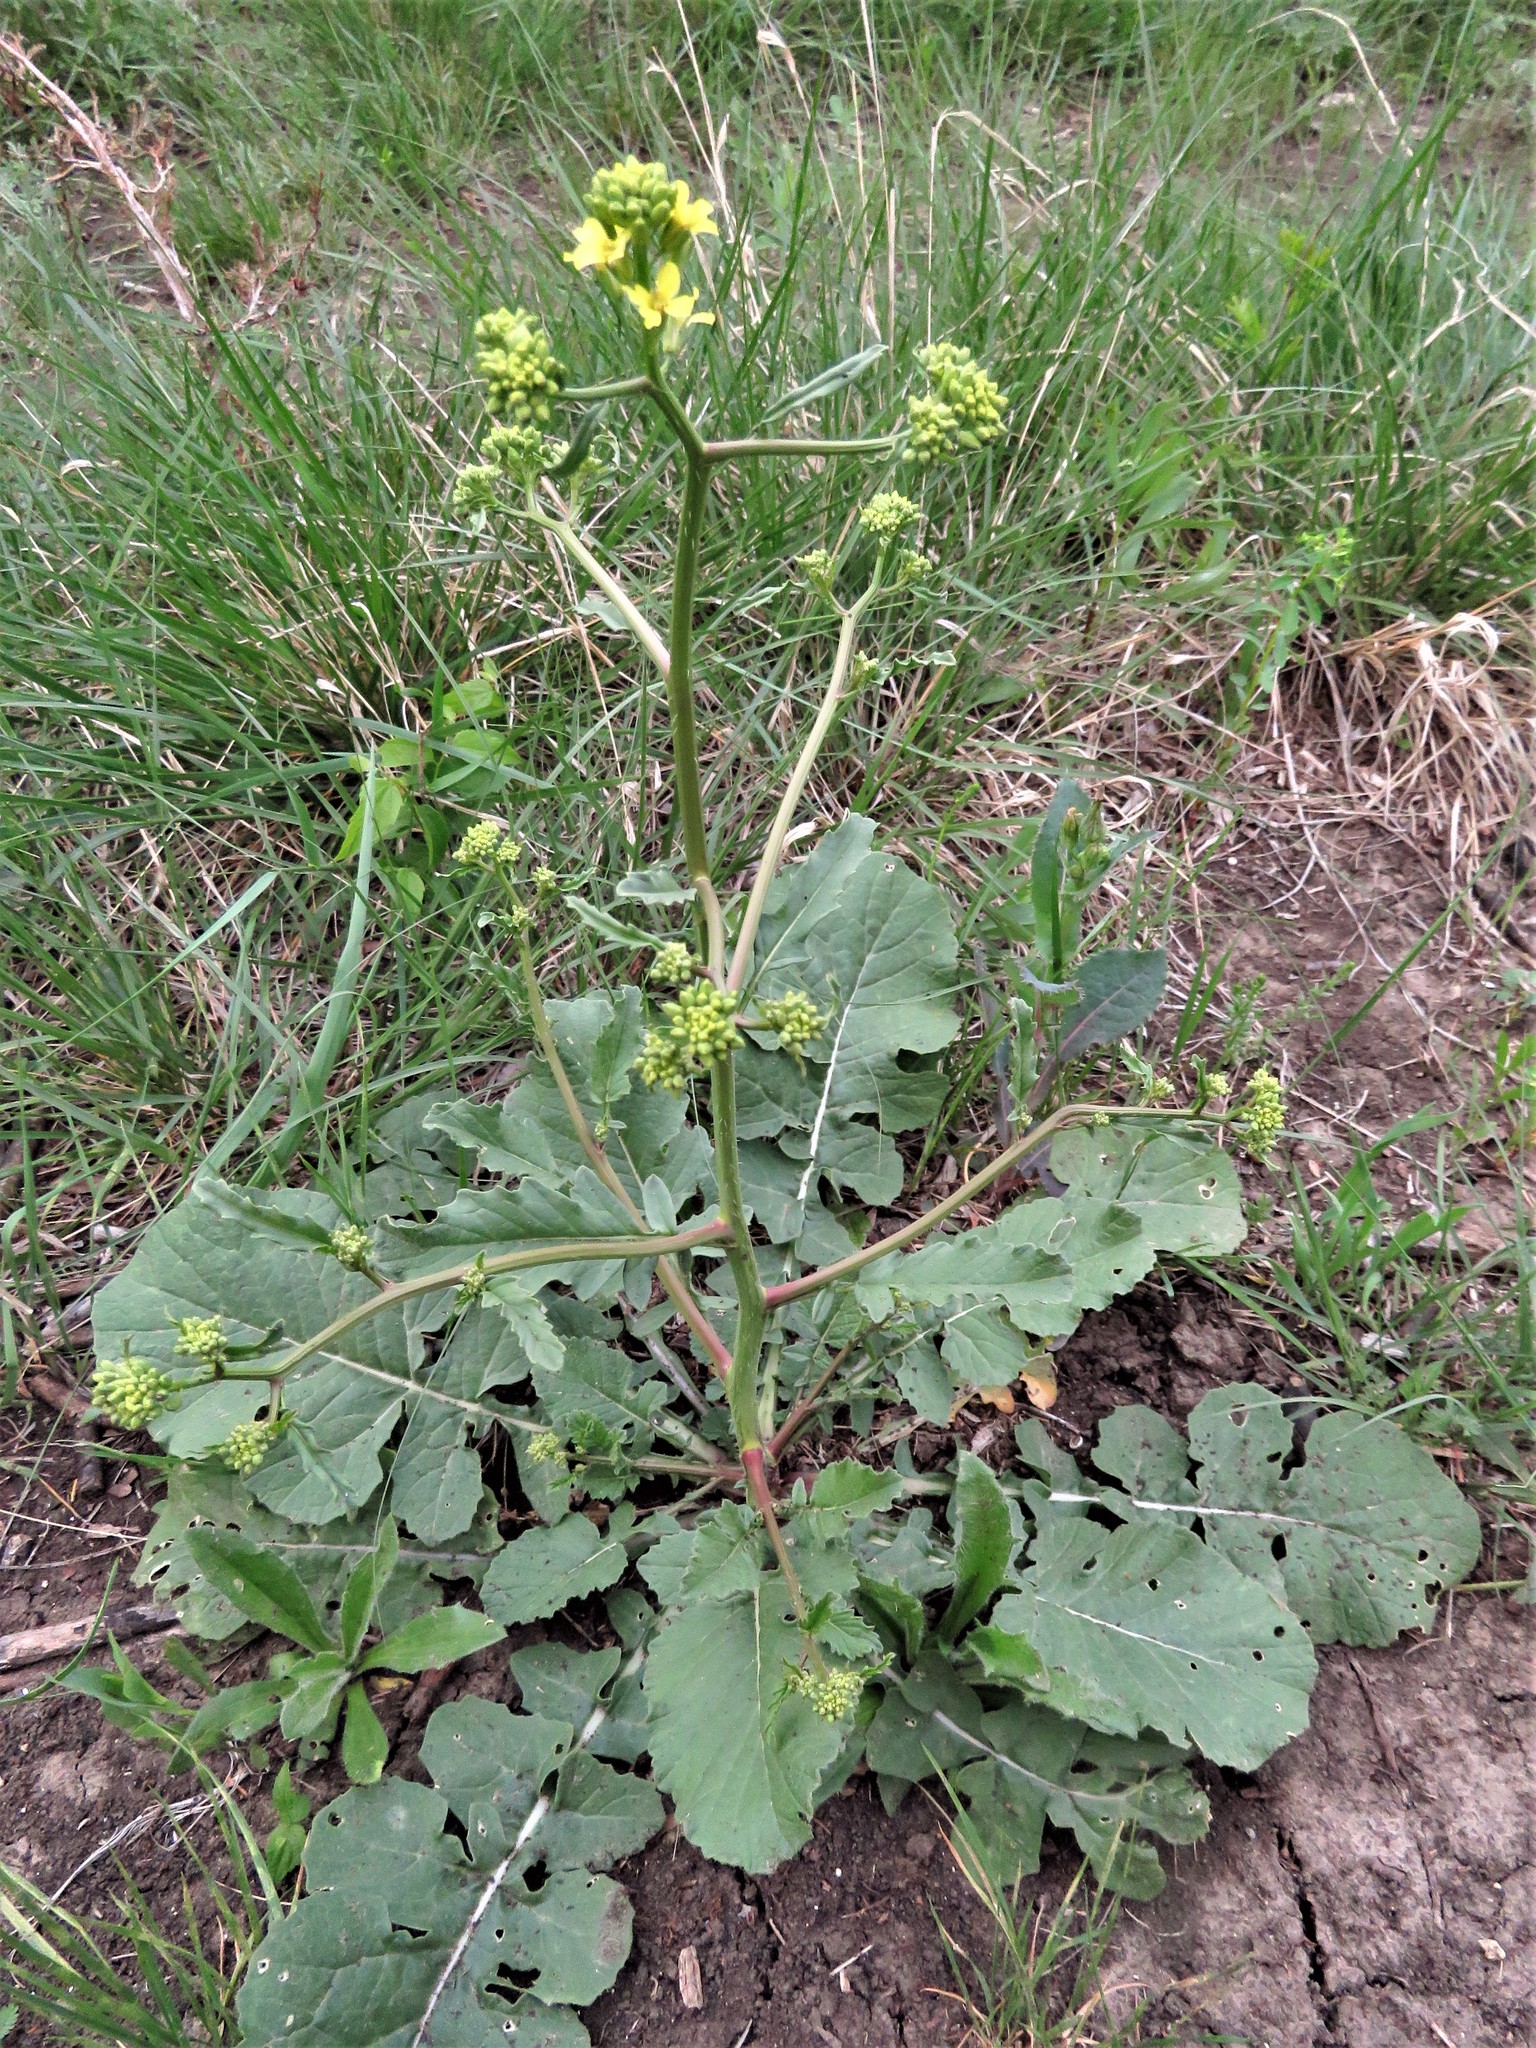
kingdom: Plantae
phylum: Tracheophyta
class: Magnoliopsida
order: Brassicales
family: Brassicaceae
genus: Rapistrum
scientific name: Rapistrum rugosum
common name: Annual bastardcabbage
